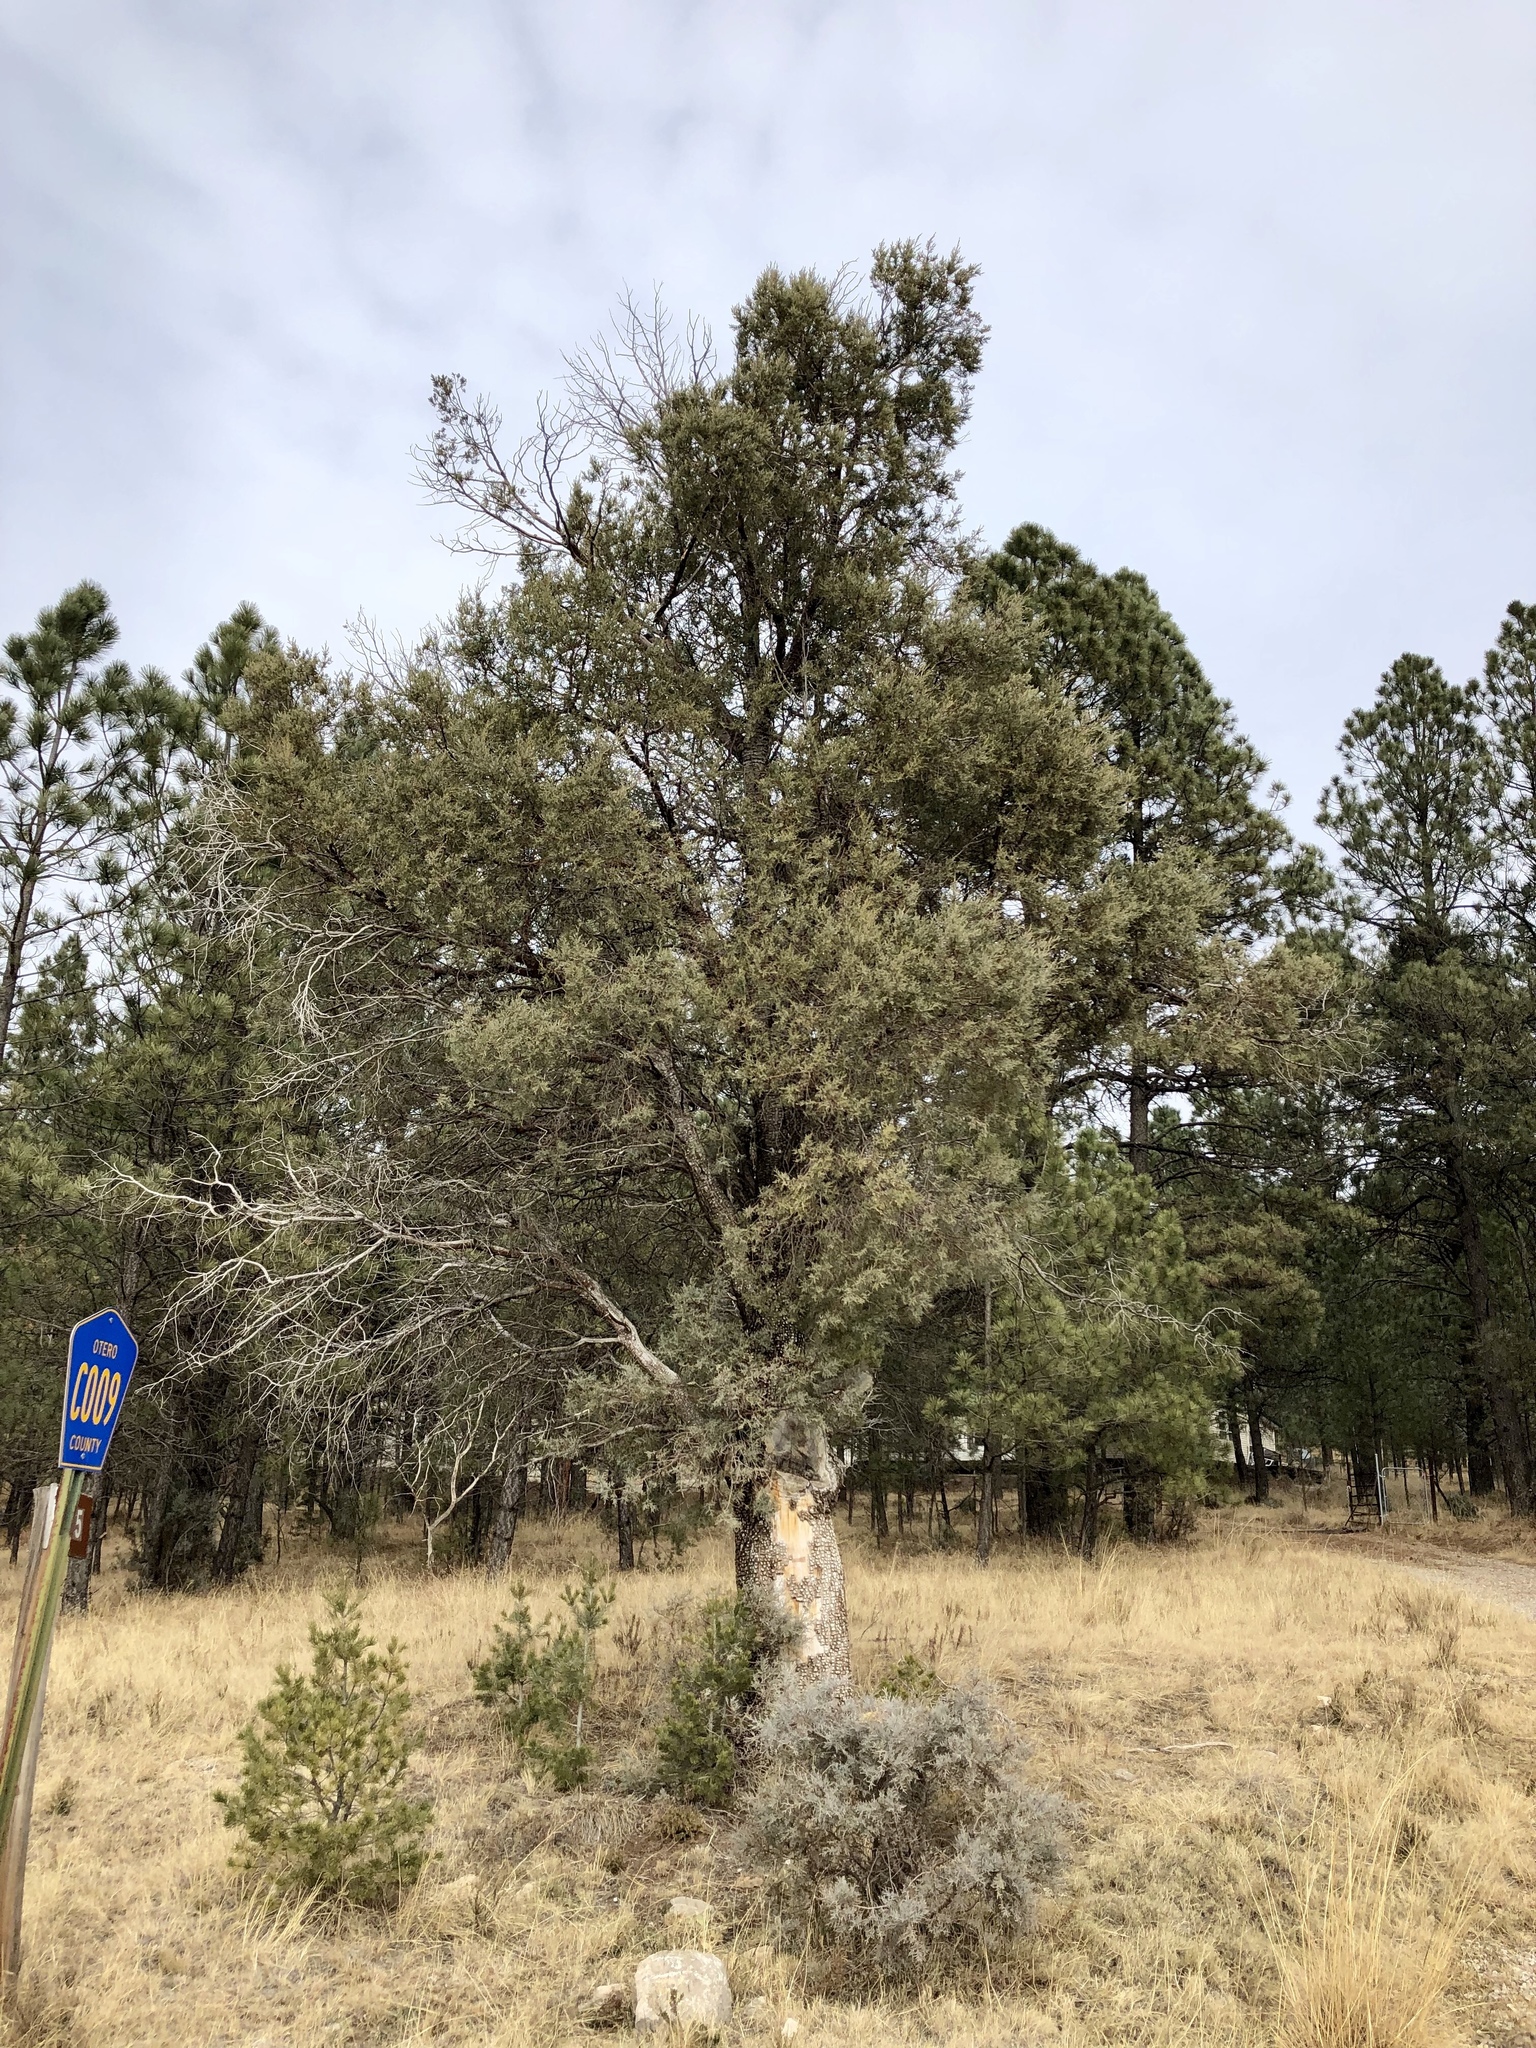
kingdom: Plantae
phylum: Tracheophyta
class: Pinopsida
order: Pinales
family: Cupressaceae
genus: Juniperus
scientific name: Juniperus deppeana
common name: Alligator juniper
